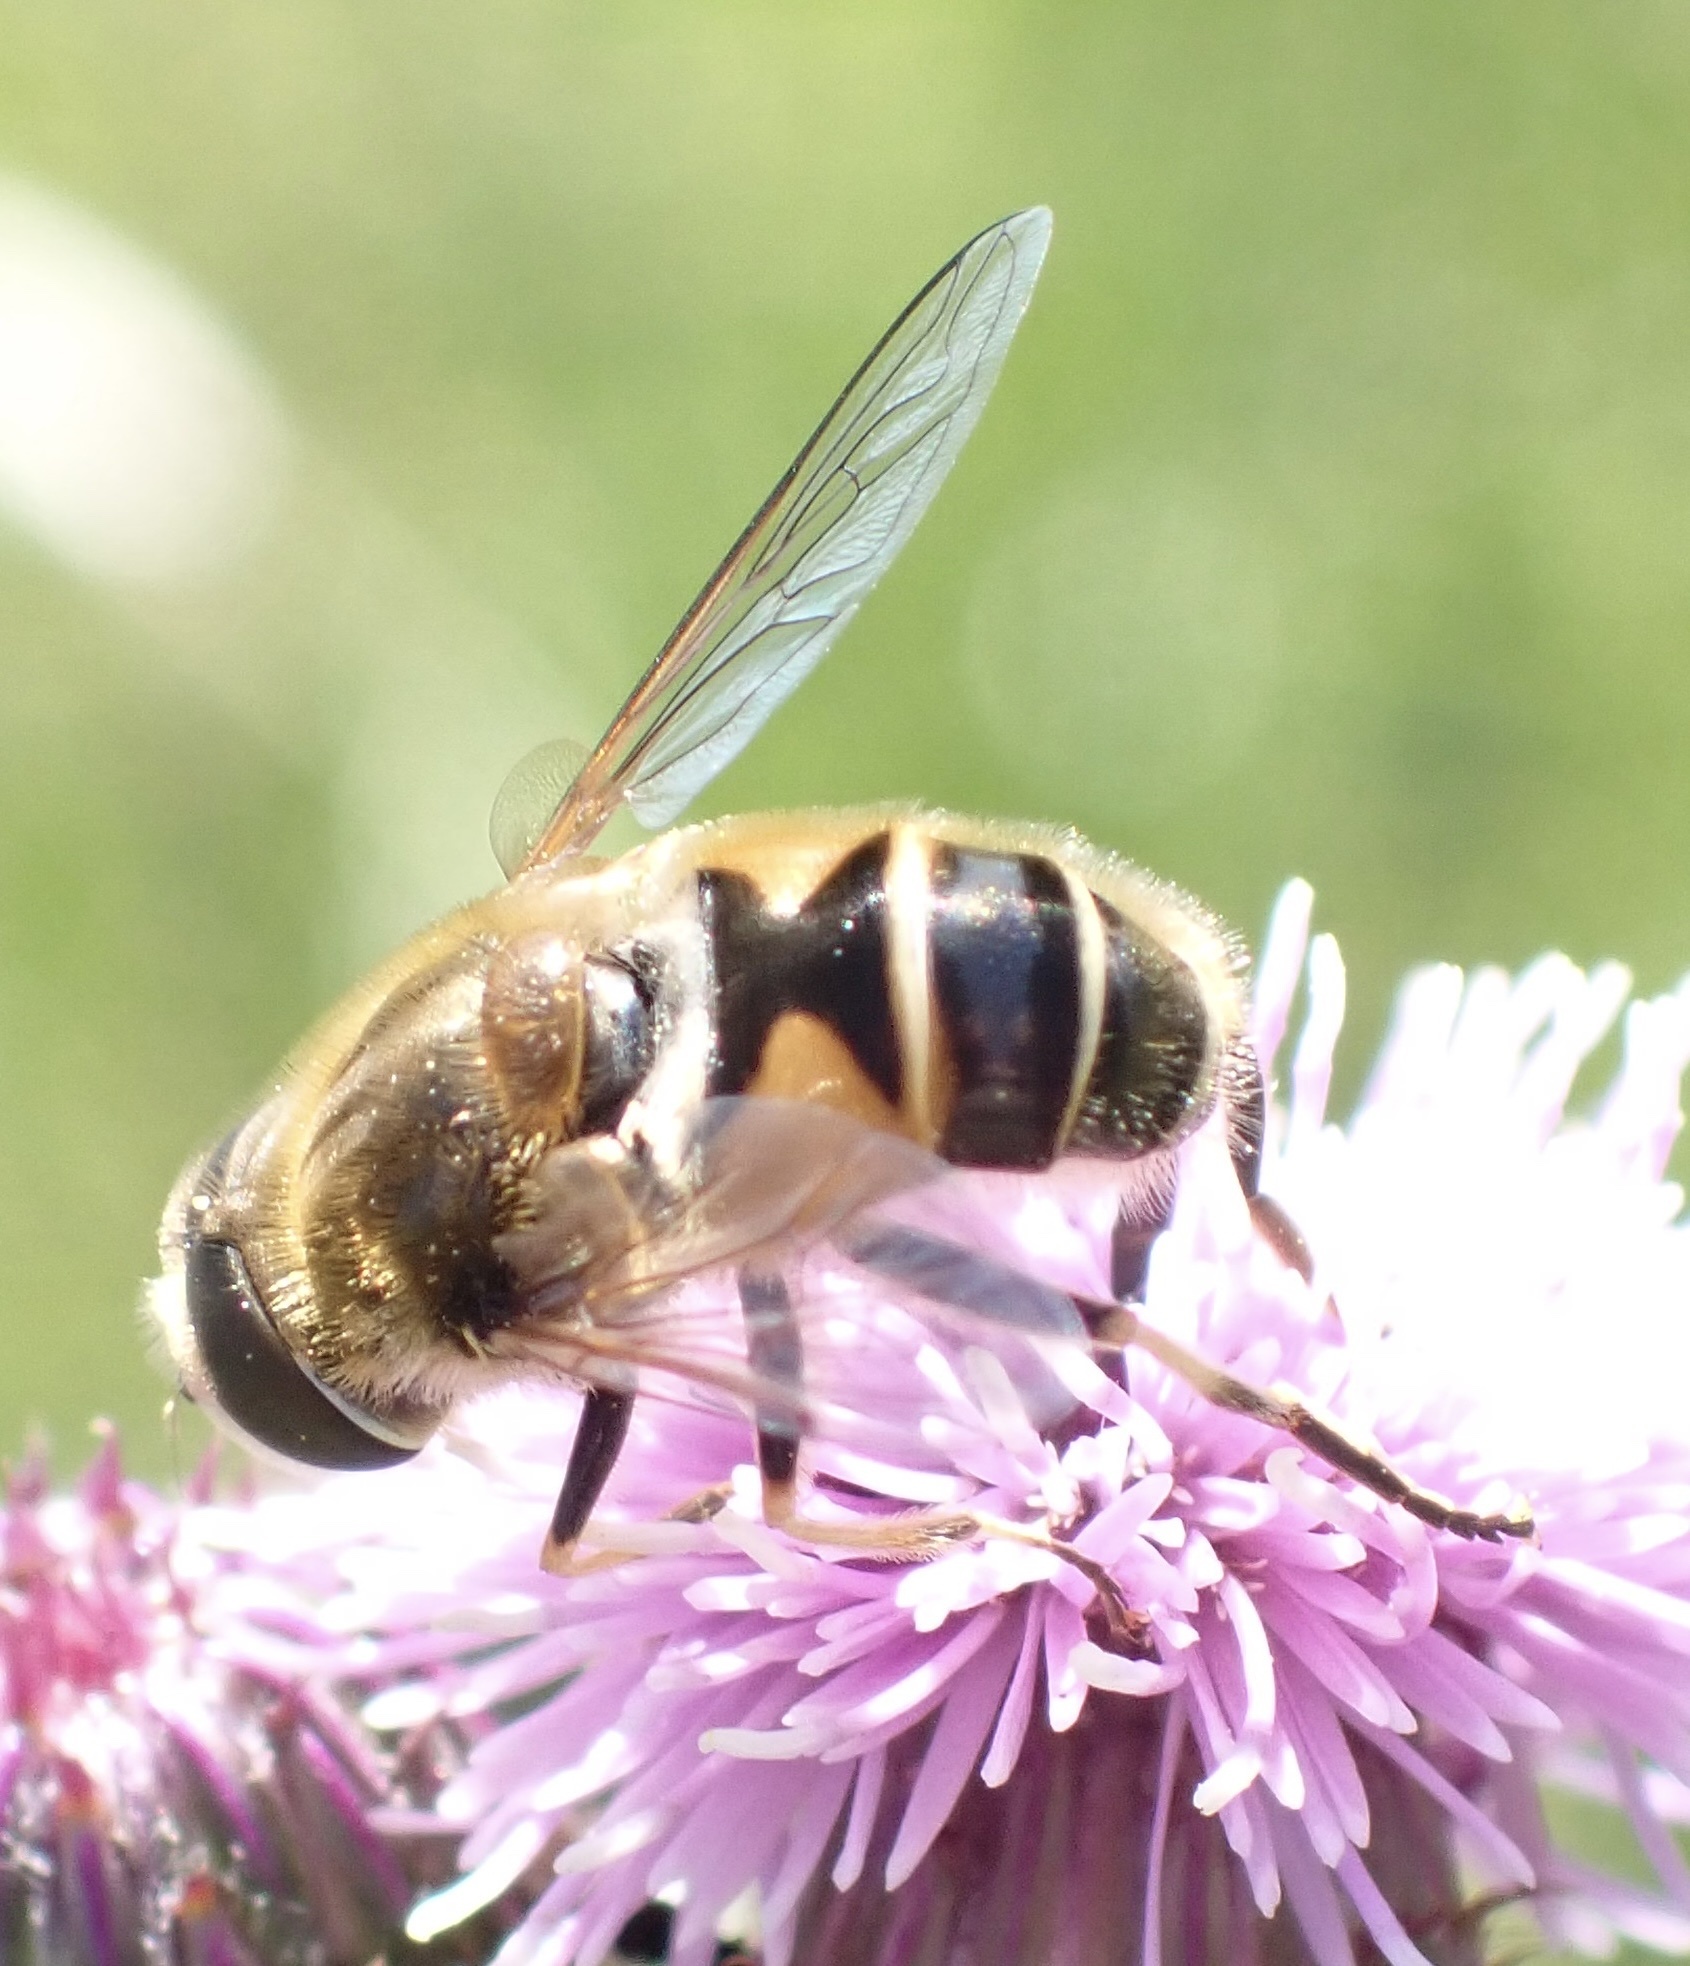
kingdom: Animalia
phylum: Arthropoda
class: Insecta
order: Diptera
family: Syrphidae
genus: Eristalis
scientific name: Eristalis nemorum
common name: Orange-spined drone fly
